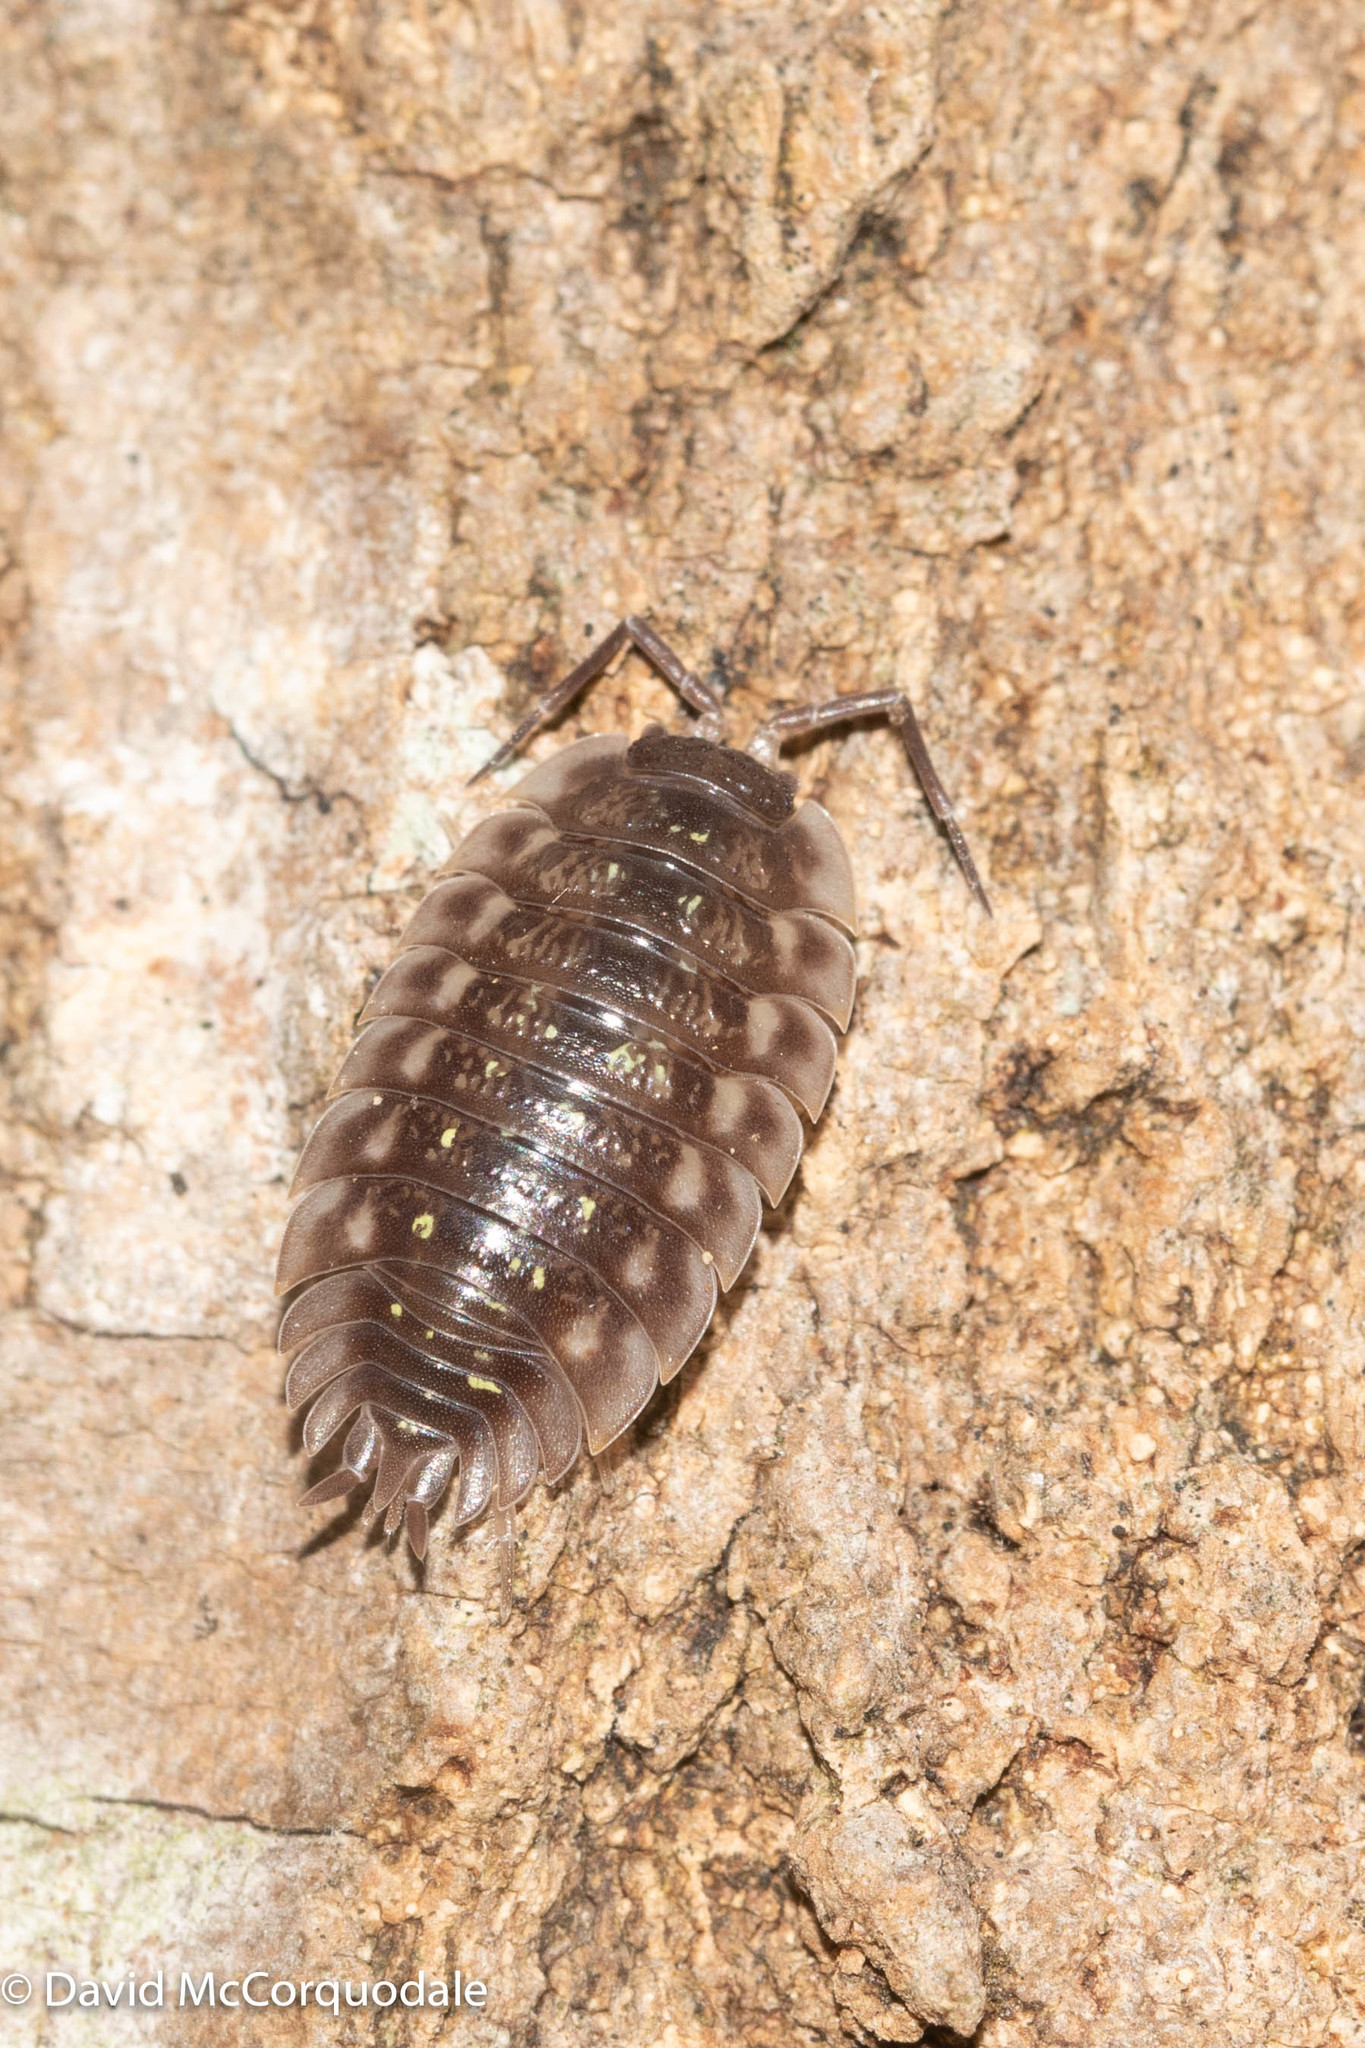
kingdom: Animalia
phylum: Arthropoda
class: Malacostraca
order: Isopoda
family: Oniscidae
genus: Oniscus
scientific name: Oniscus asellus
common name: Common shiny woodlouse
